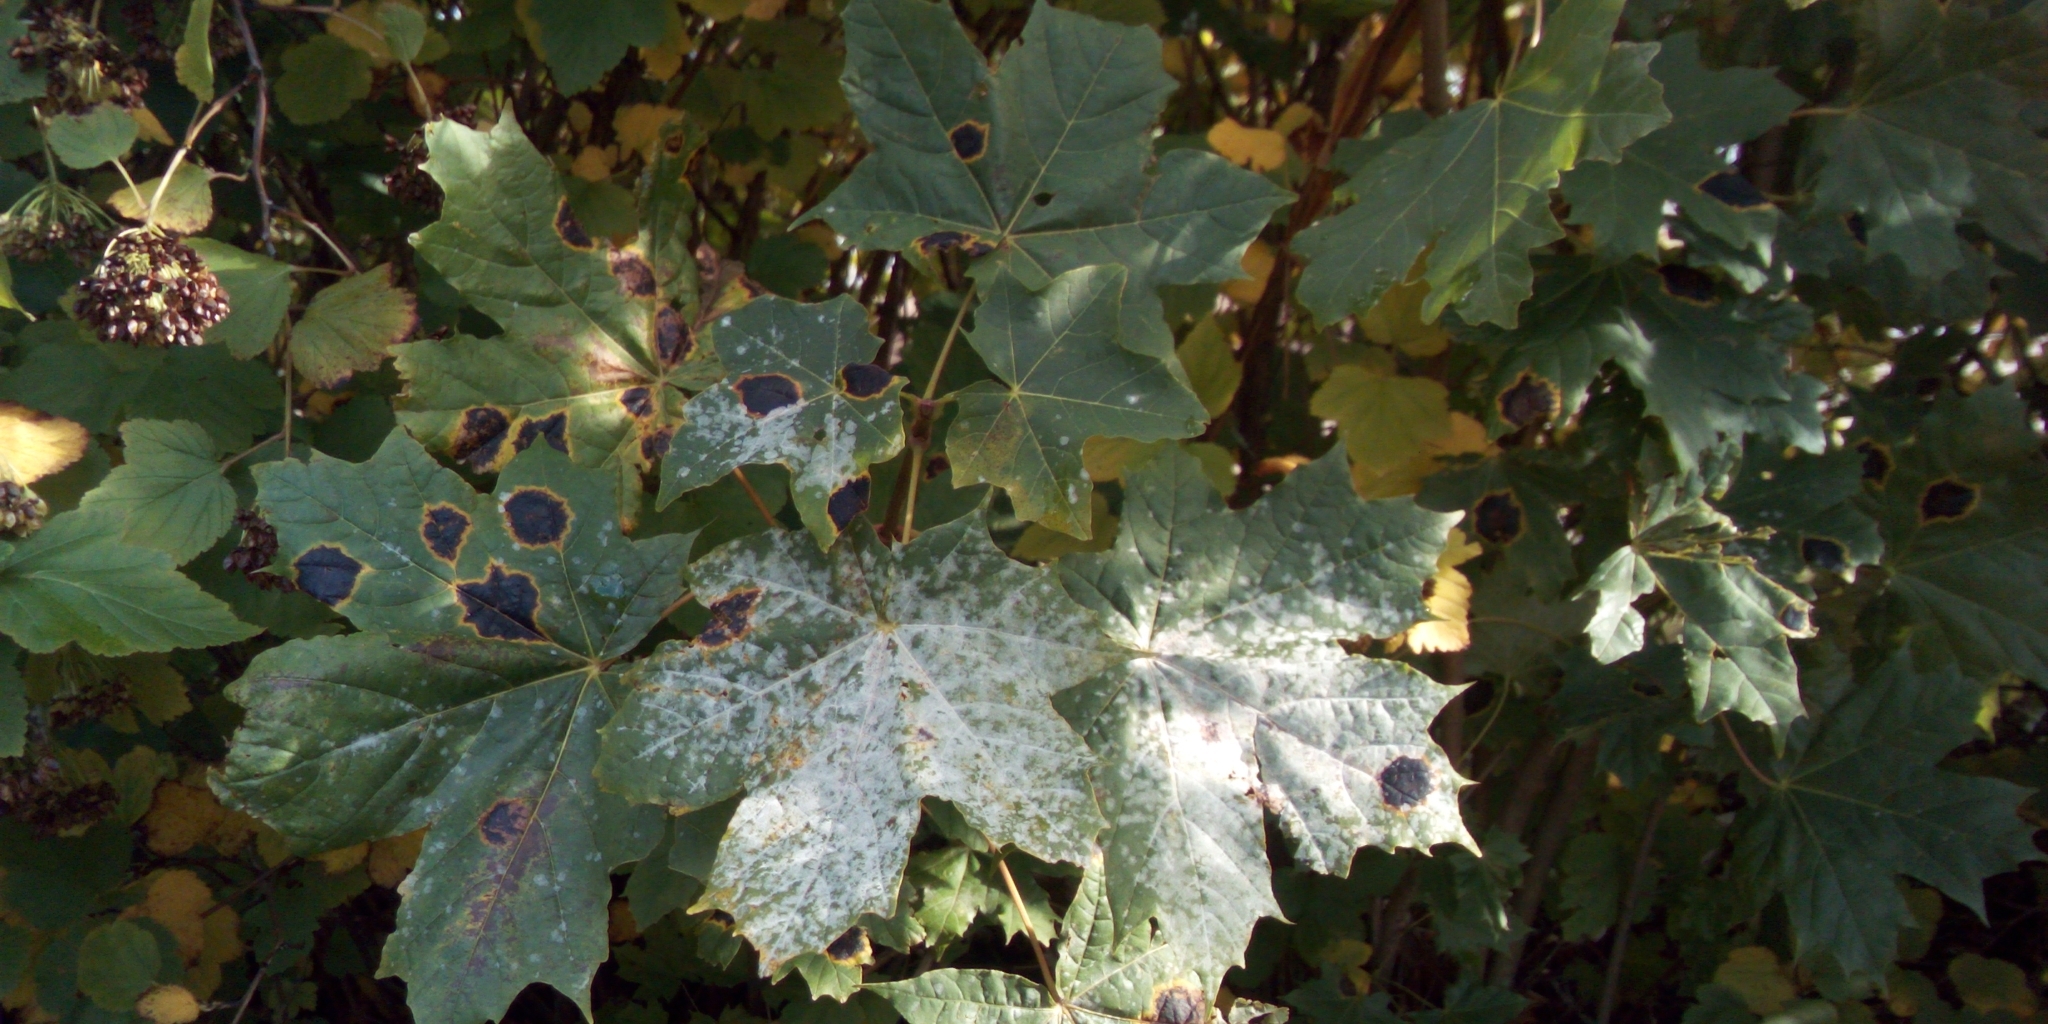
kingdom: Fungi
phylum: Ascomycota
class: Leotiomycetes
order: Rhytismatales
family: Rhytismataceae
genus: Rhytisma
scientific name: Rhytisma acerinum
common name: European tar spot
